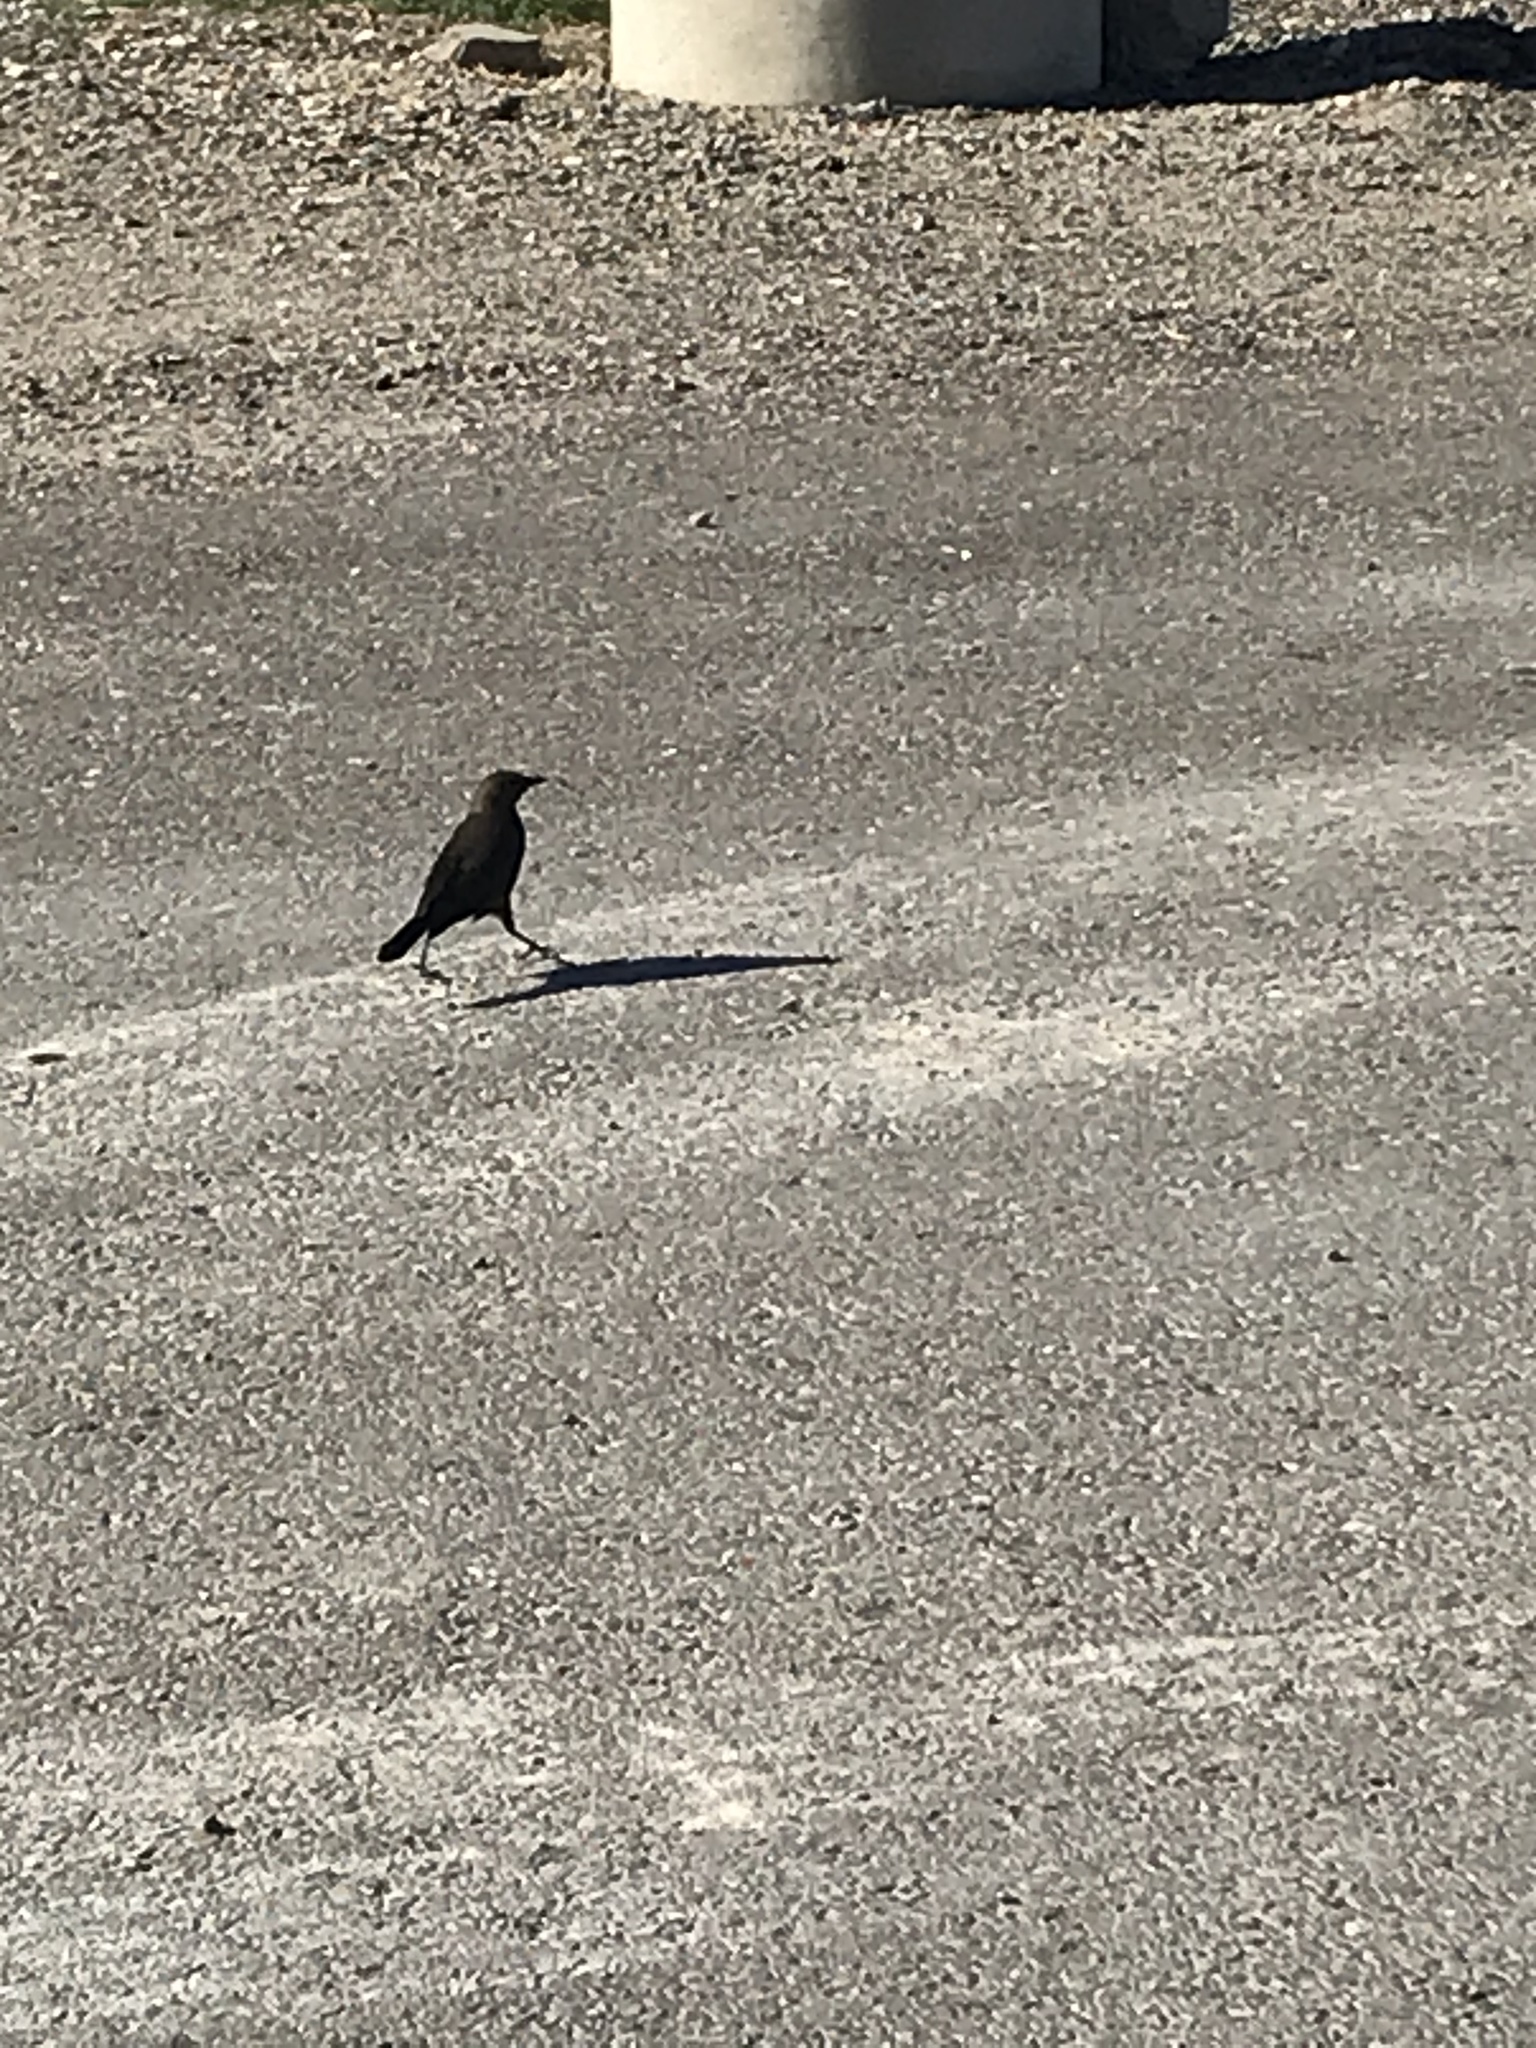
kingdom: Animalia
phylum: Chordata
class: Aves
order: Passeriformes
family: Icteridae
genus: Euphagus
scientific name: Euphagus cyanocephalus
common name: Brewer's blackbird
